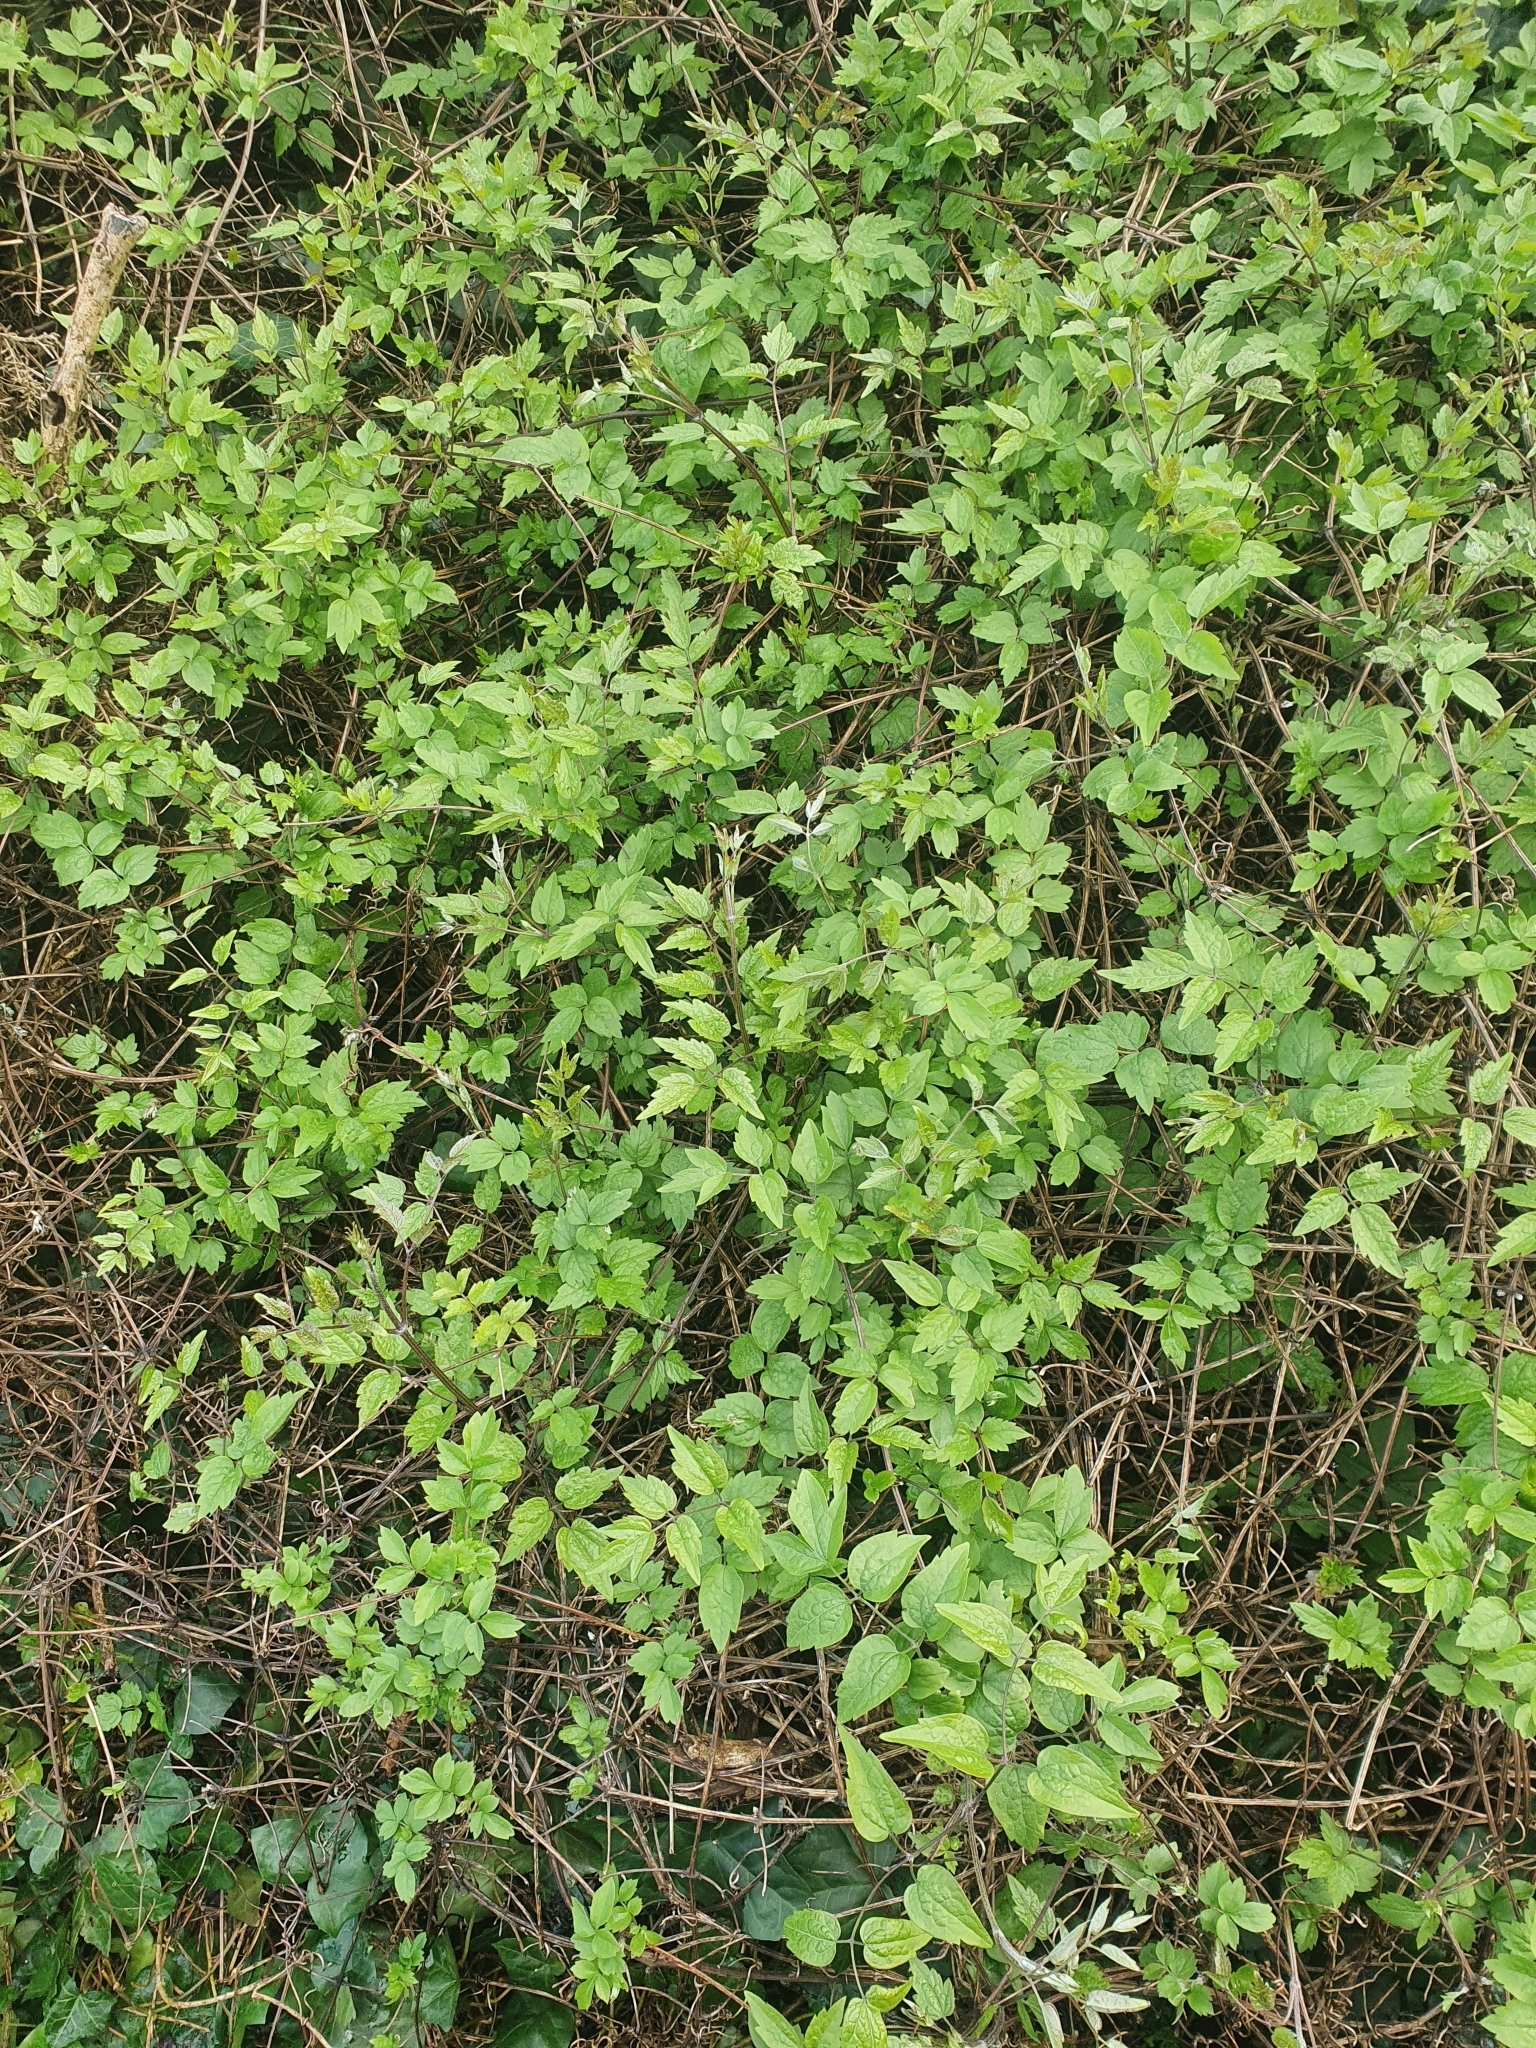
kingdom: Plantae
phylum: Tracheophyta
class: Magnoliopsida
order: Ranunculales
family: Ranunculaceae
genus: Clematis
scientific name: Clematis vitalba
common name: Evergreen clematis
